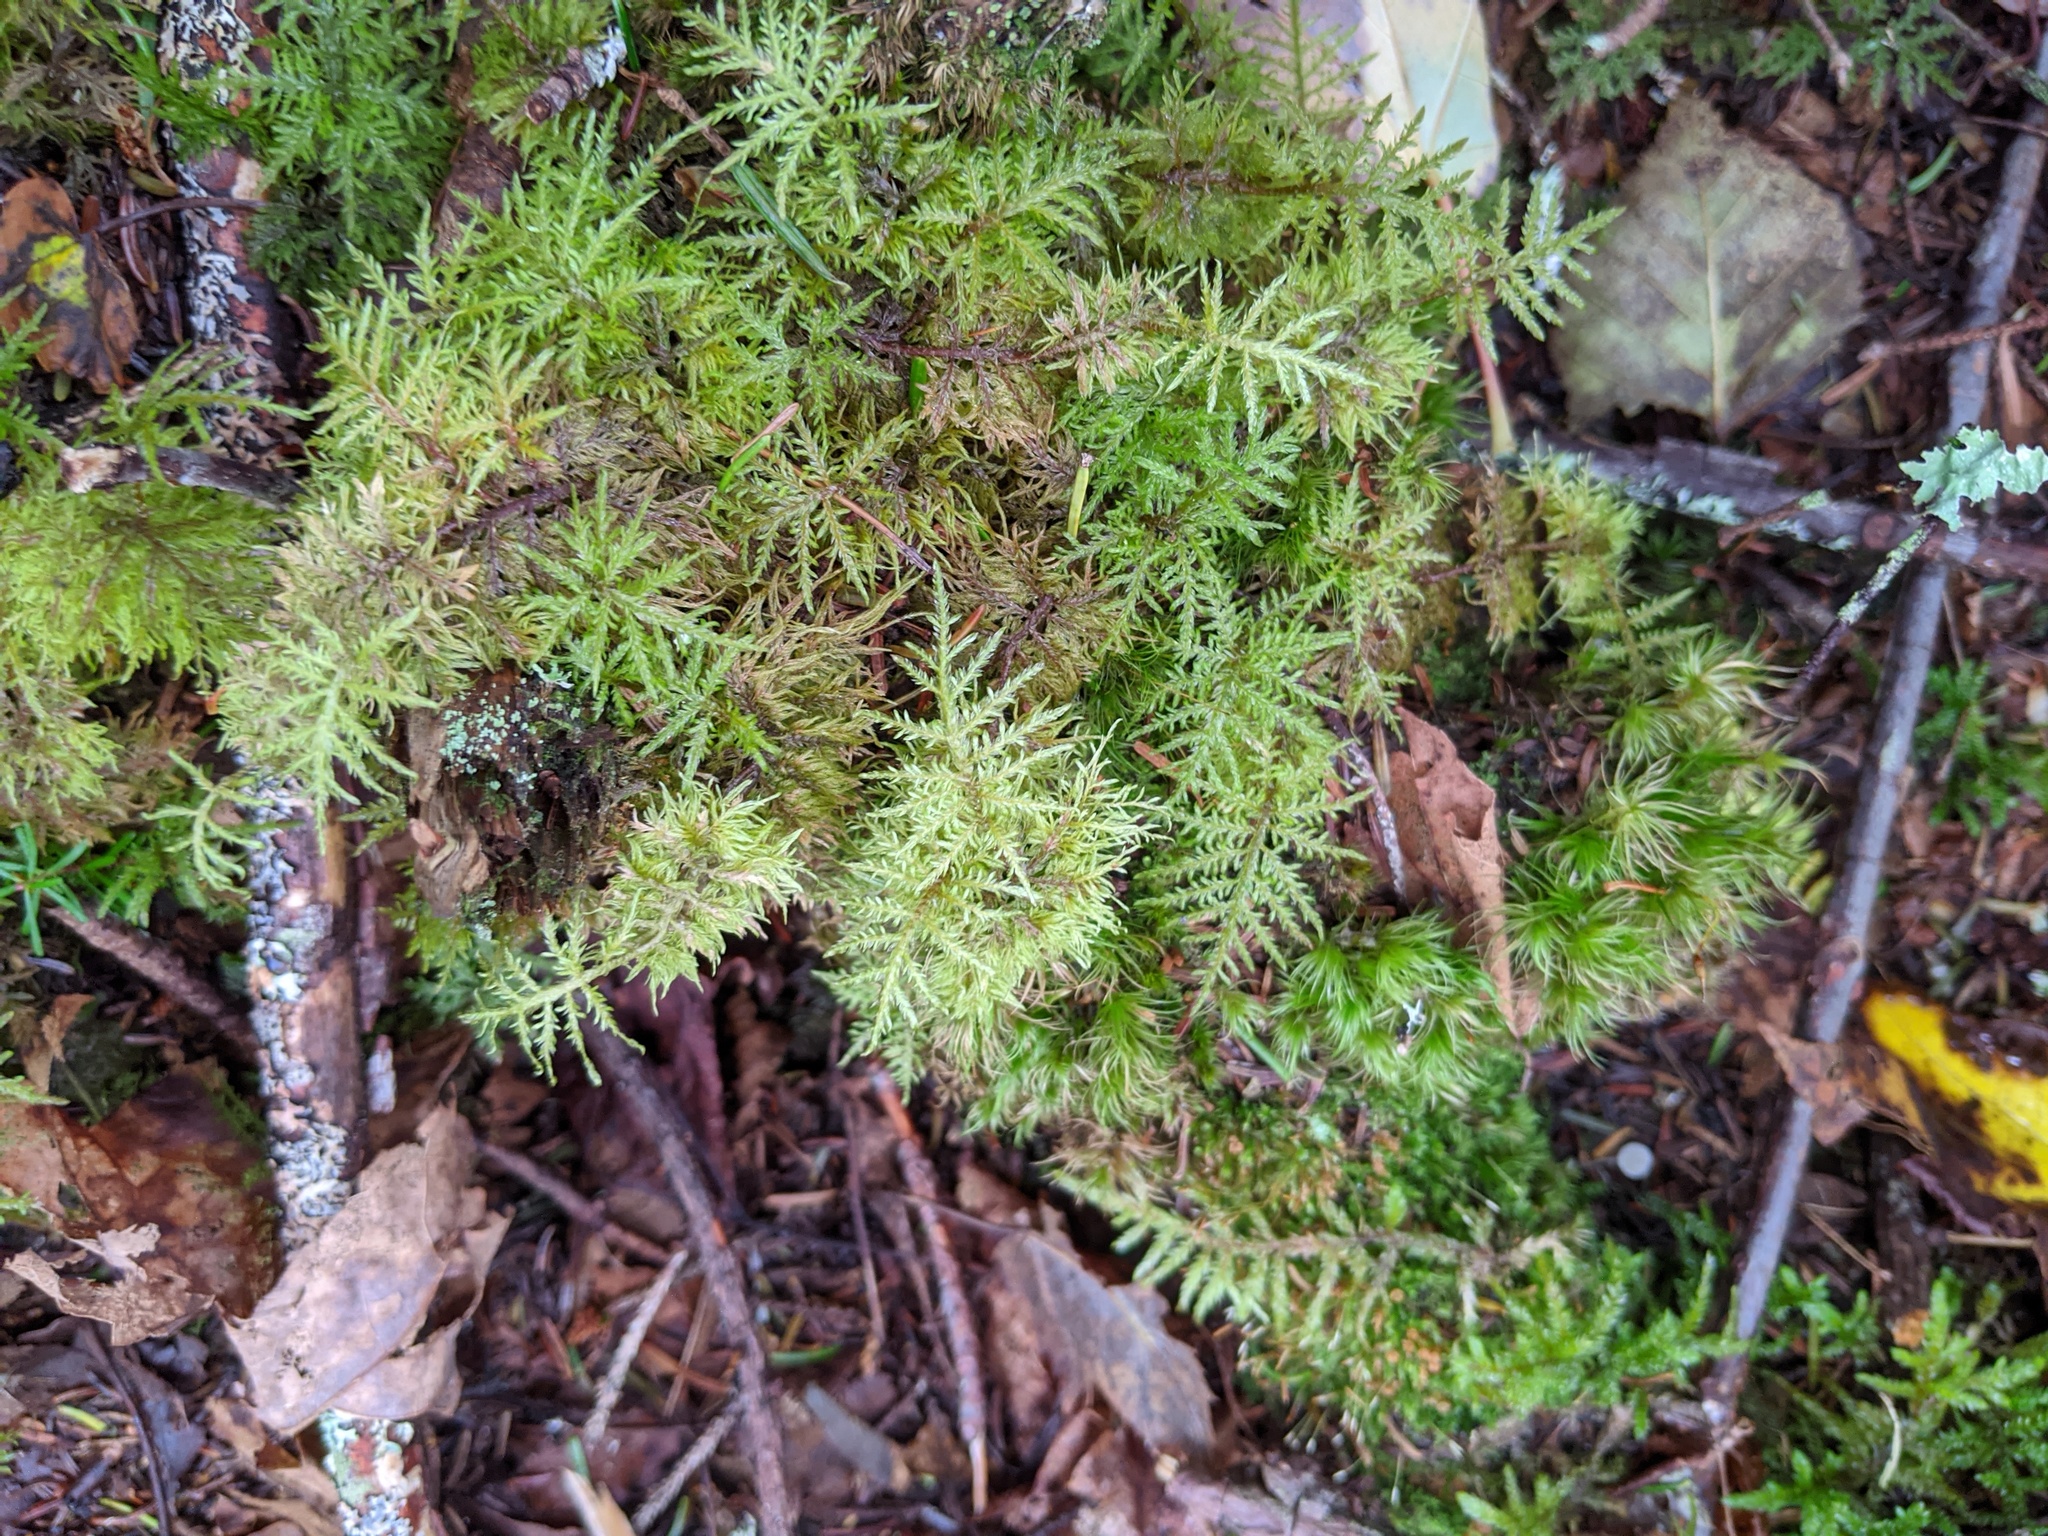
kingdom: Plantae
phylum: Bryophyta
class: Bryopsida
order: Hypnales
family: Hylocomiaceae
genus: Hylocomium
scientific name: Hylocomium splendens
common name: Stairstep moss
